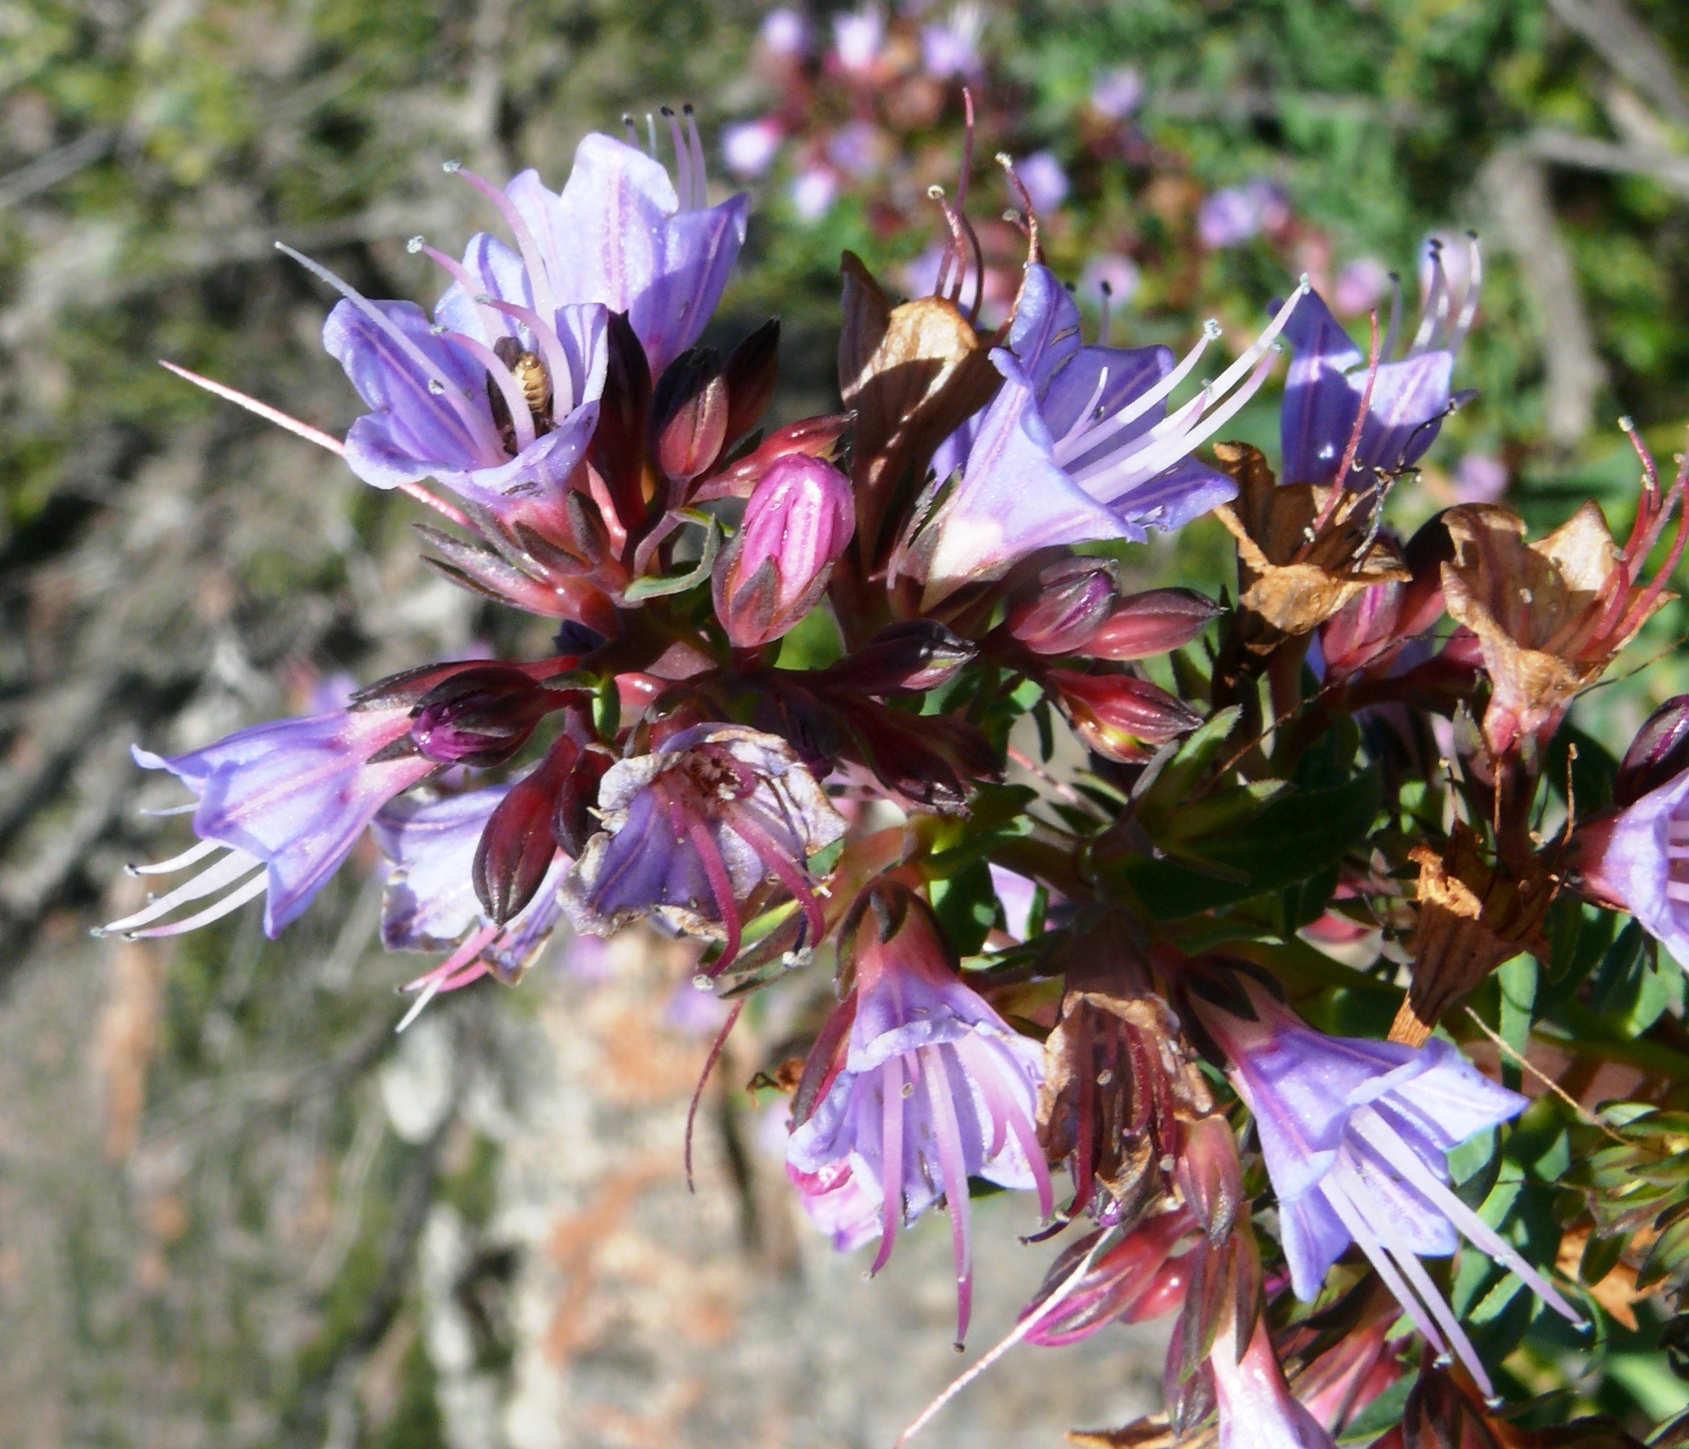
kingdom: Plantae
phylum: Tracheophyta
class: Magnoliopsida
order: Boraginales
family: Boraginaceae
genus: Lobostemon
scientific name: Lobostemon laevigatus
